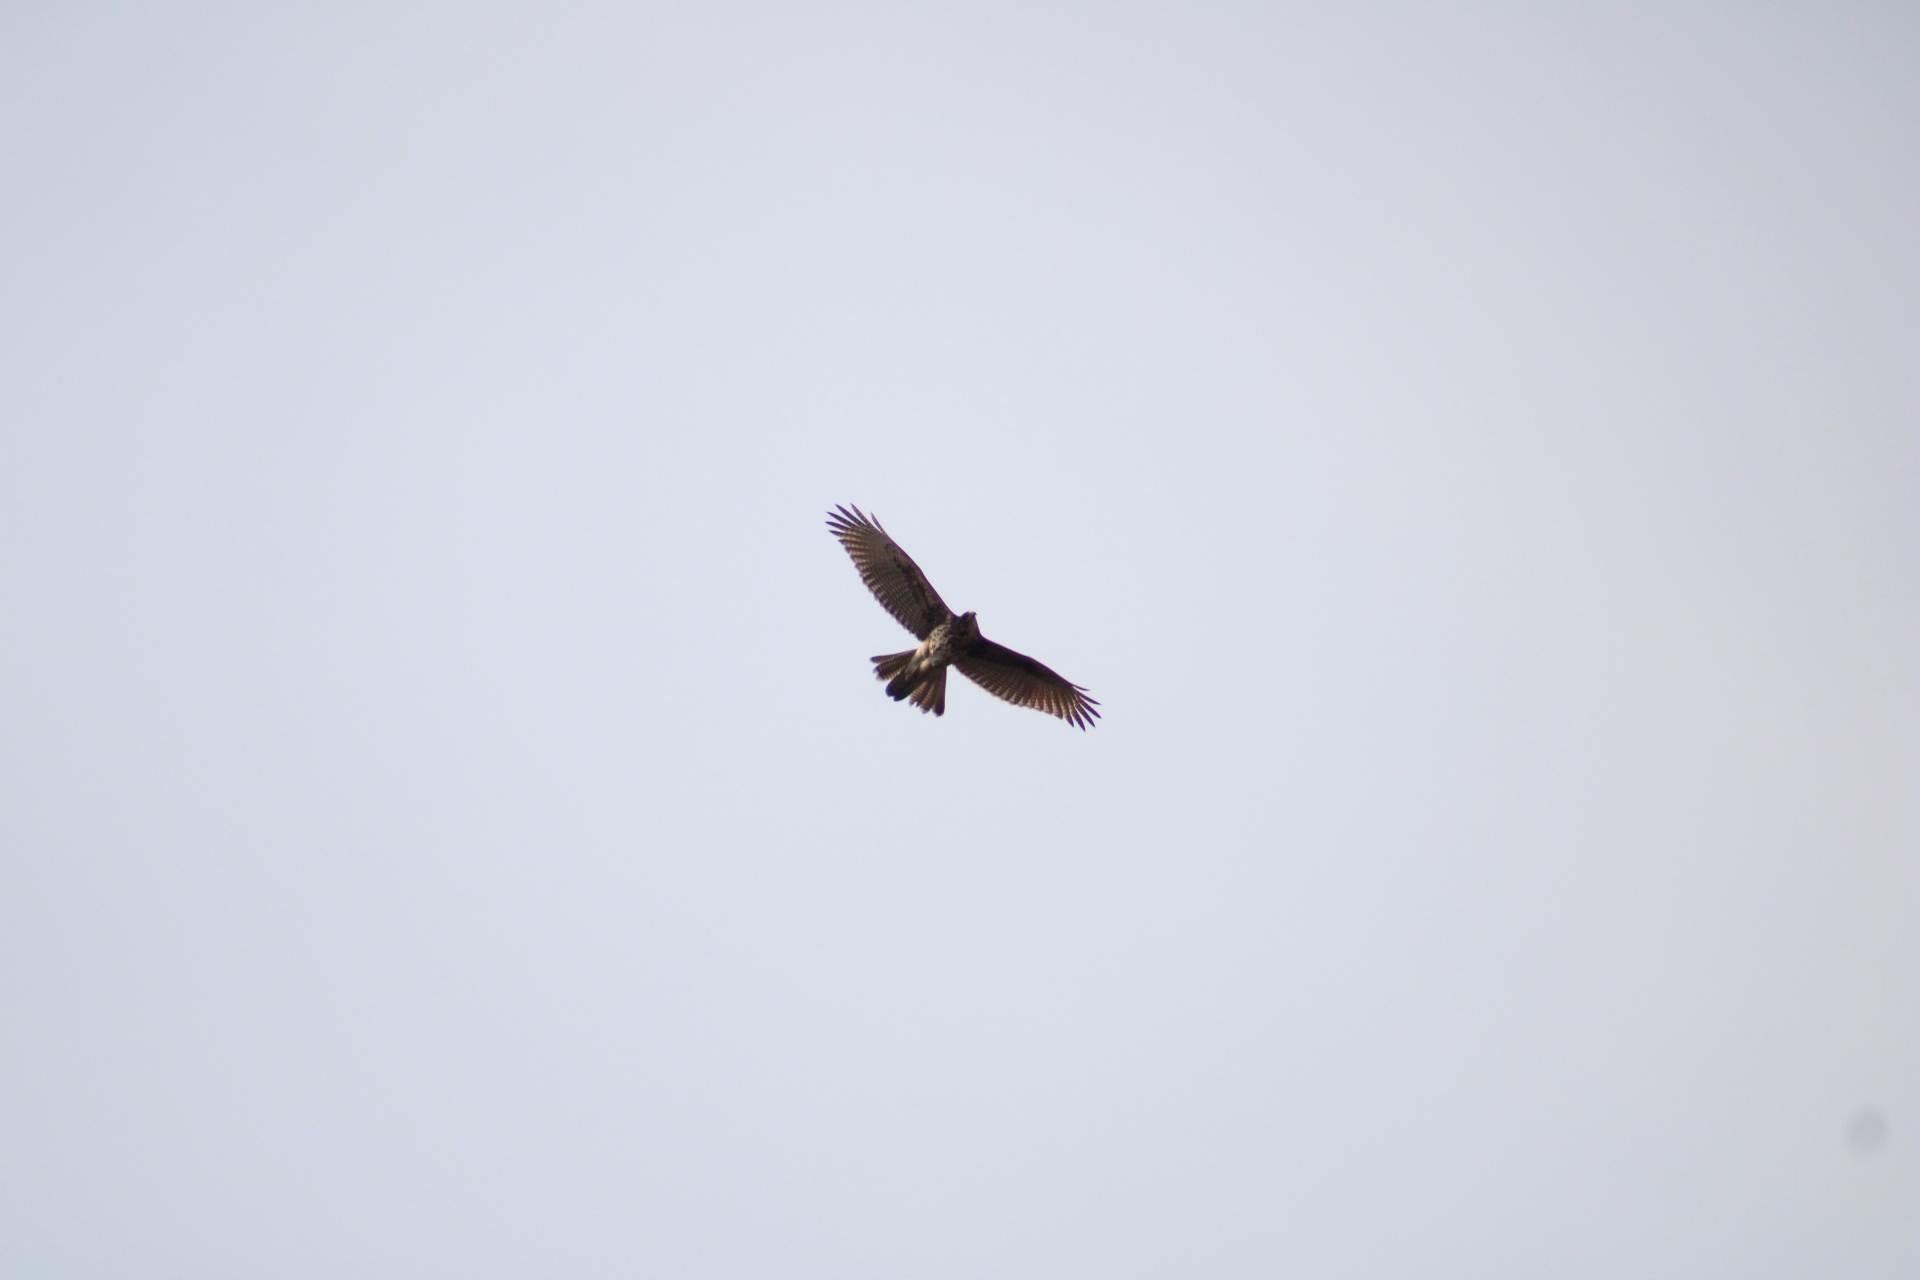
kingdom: Animalia
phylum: Chordata
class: Aves
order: Accipitriformes
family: Accipitridae
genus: Parabuteo
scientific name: Parabuteo unicinctus
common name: Harris's hawk
